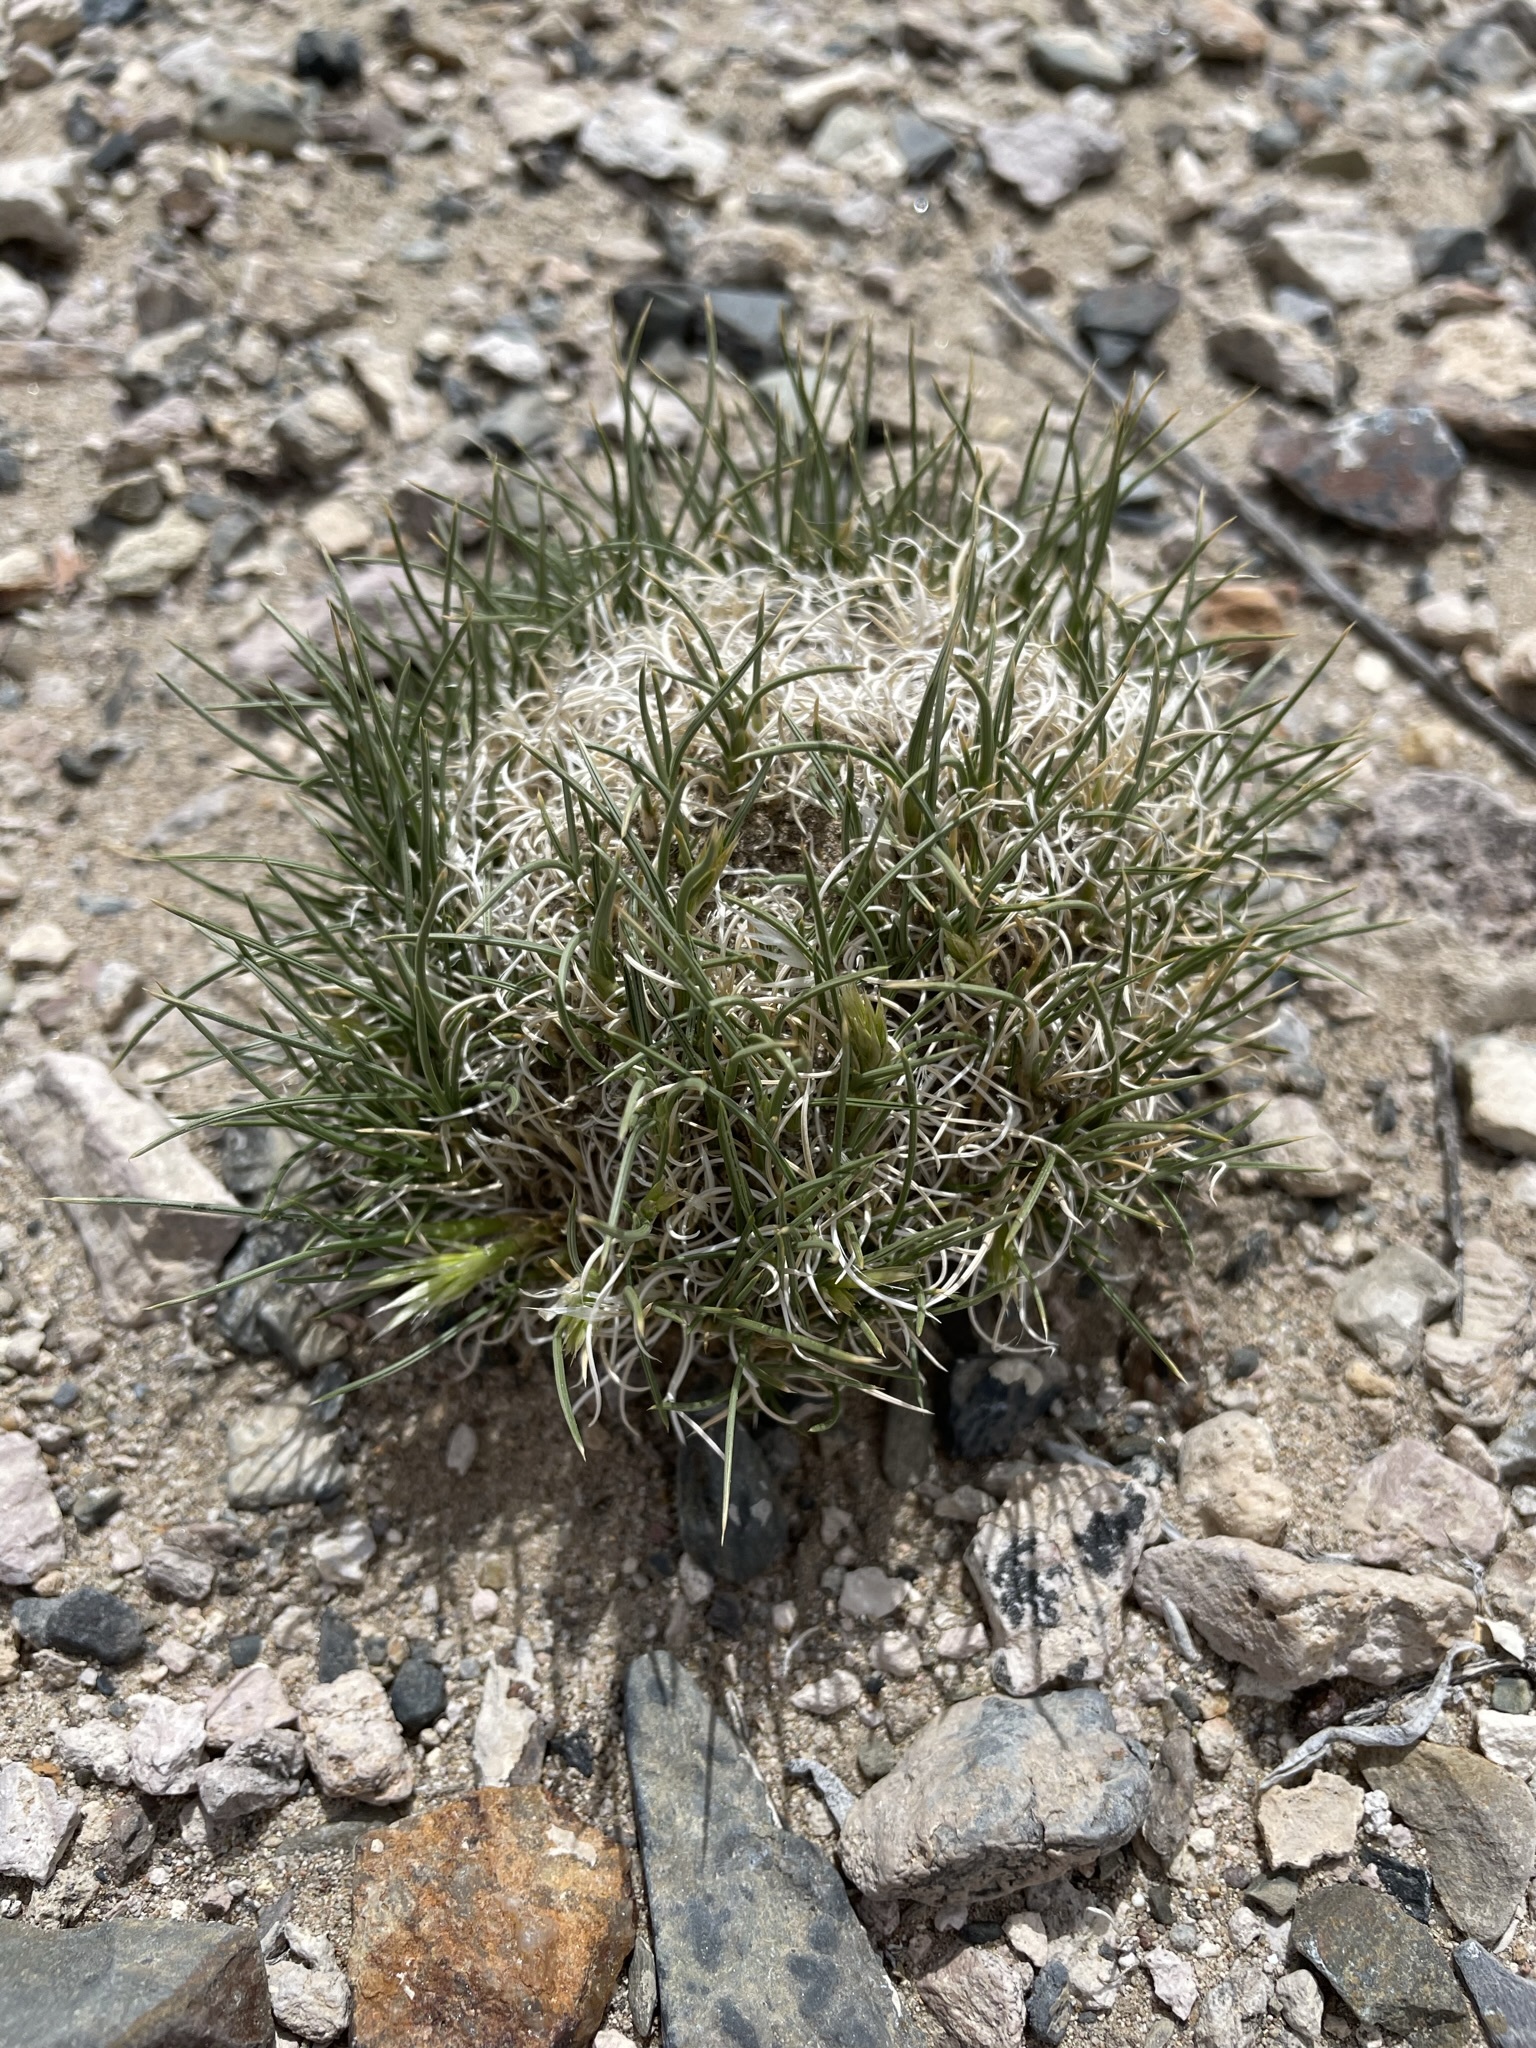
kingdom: Plantae
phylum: Tracheophyta
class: Liliopsida
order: Poales
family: Poaceae
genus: Blepharidachne
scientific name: Blepharidachne kingii
